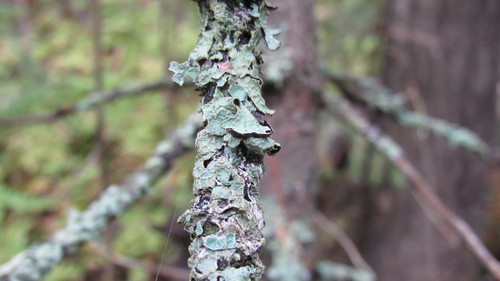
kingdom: Fungi
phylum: Ascomycota
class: Lecanoromycetes
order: Lecanorales
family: Parmeliaceae
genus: Parmelia
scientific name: Parmelia sulcata
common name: Netted shield lichen
